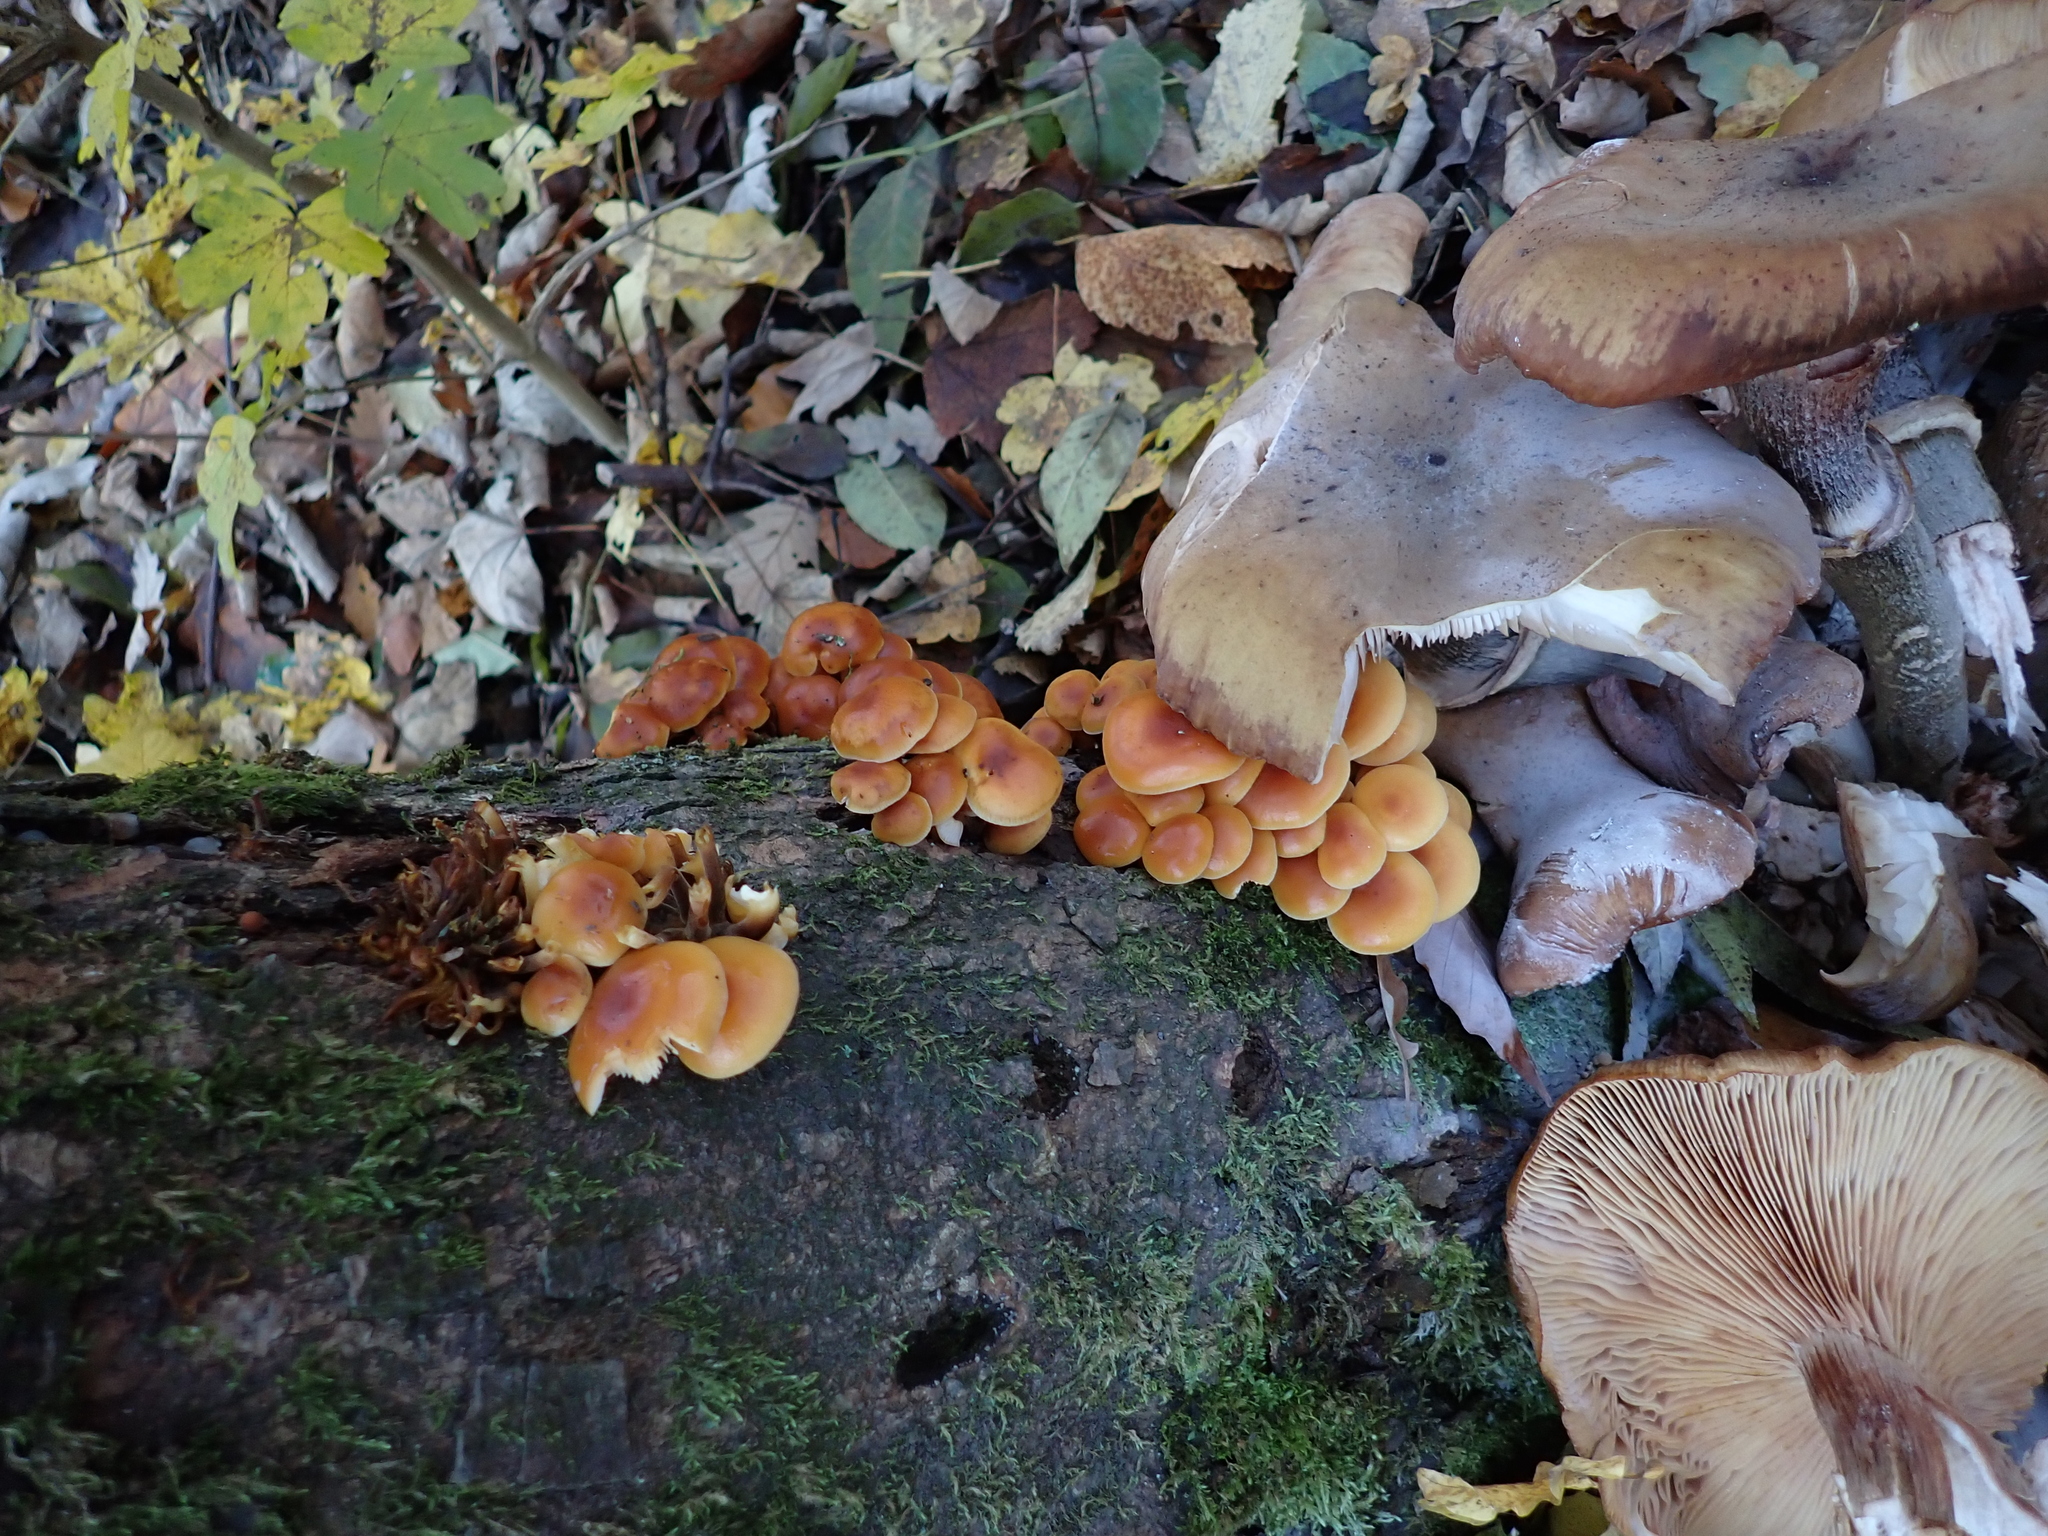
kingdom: Fungi
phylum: Basidiomycota
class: Agaricomycetes
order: Agaricales
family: Physalacriaceae
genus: Flammulina
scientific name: Flammulina
